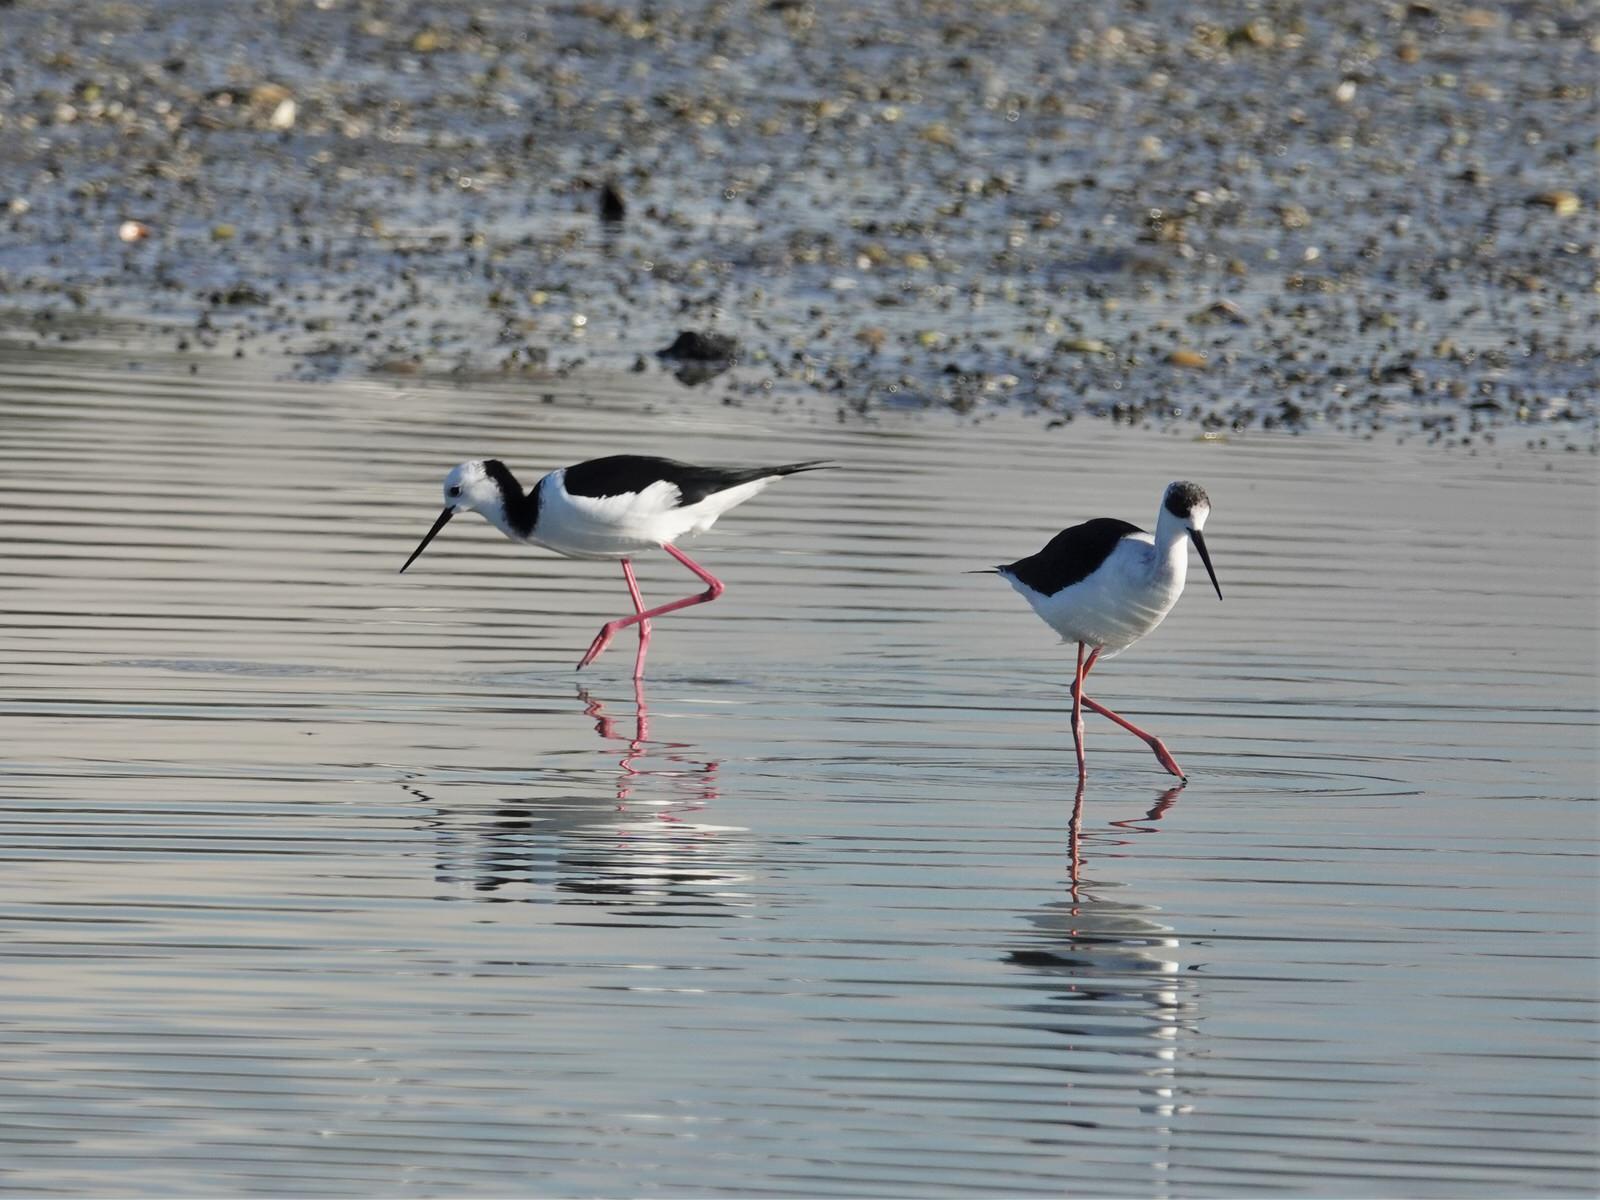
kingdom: Animalia
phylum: Chordata
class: Aves
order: Charadriiformes
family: Recurvirostridae
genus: Himantopus
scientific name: Himantopus leucocephalus
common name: White-headed stilt
